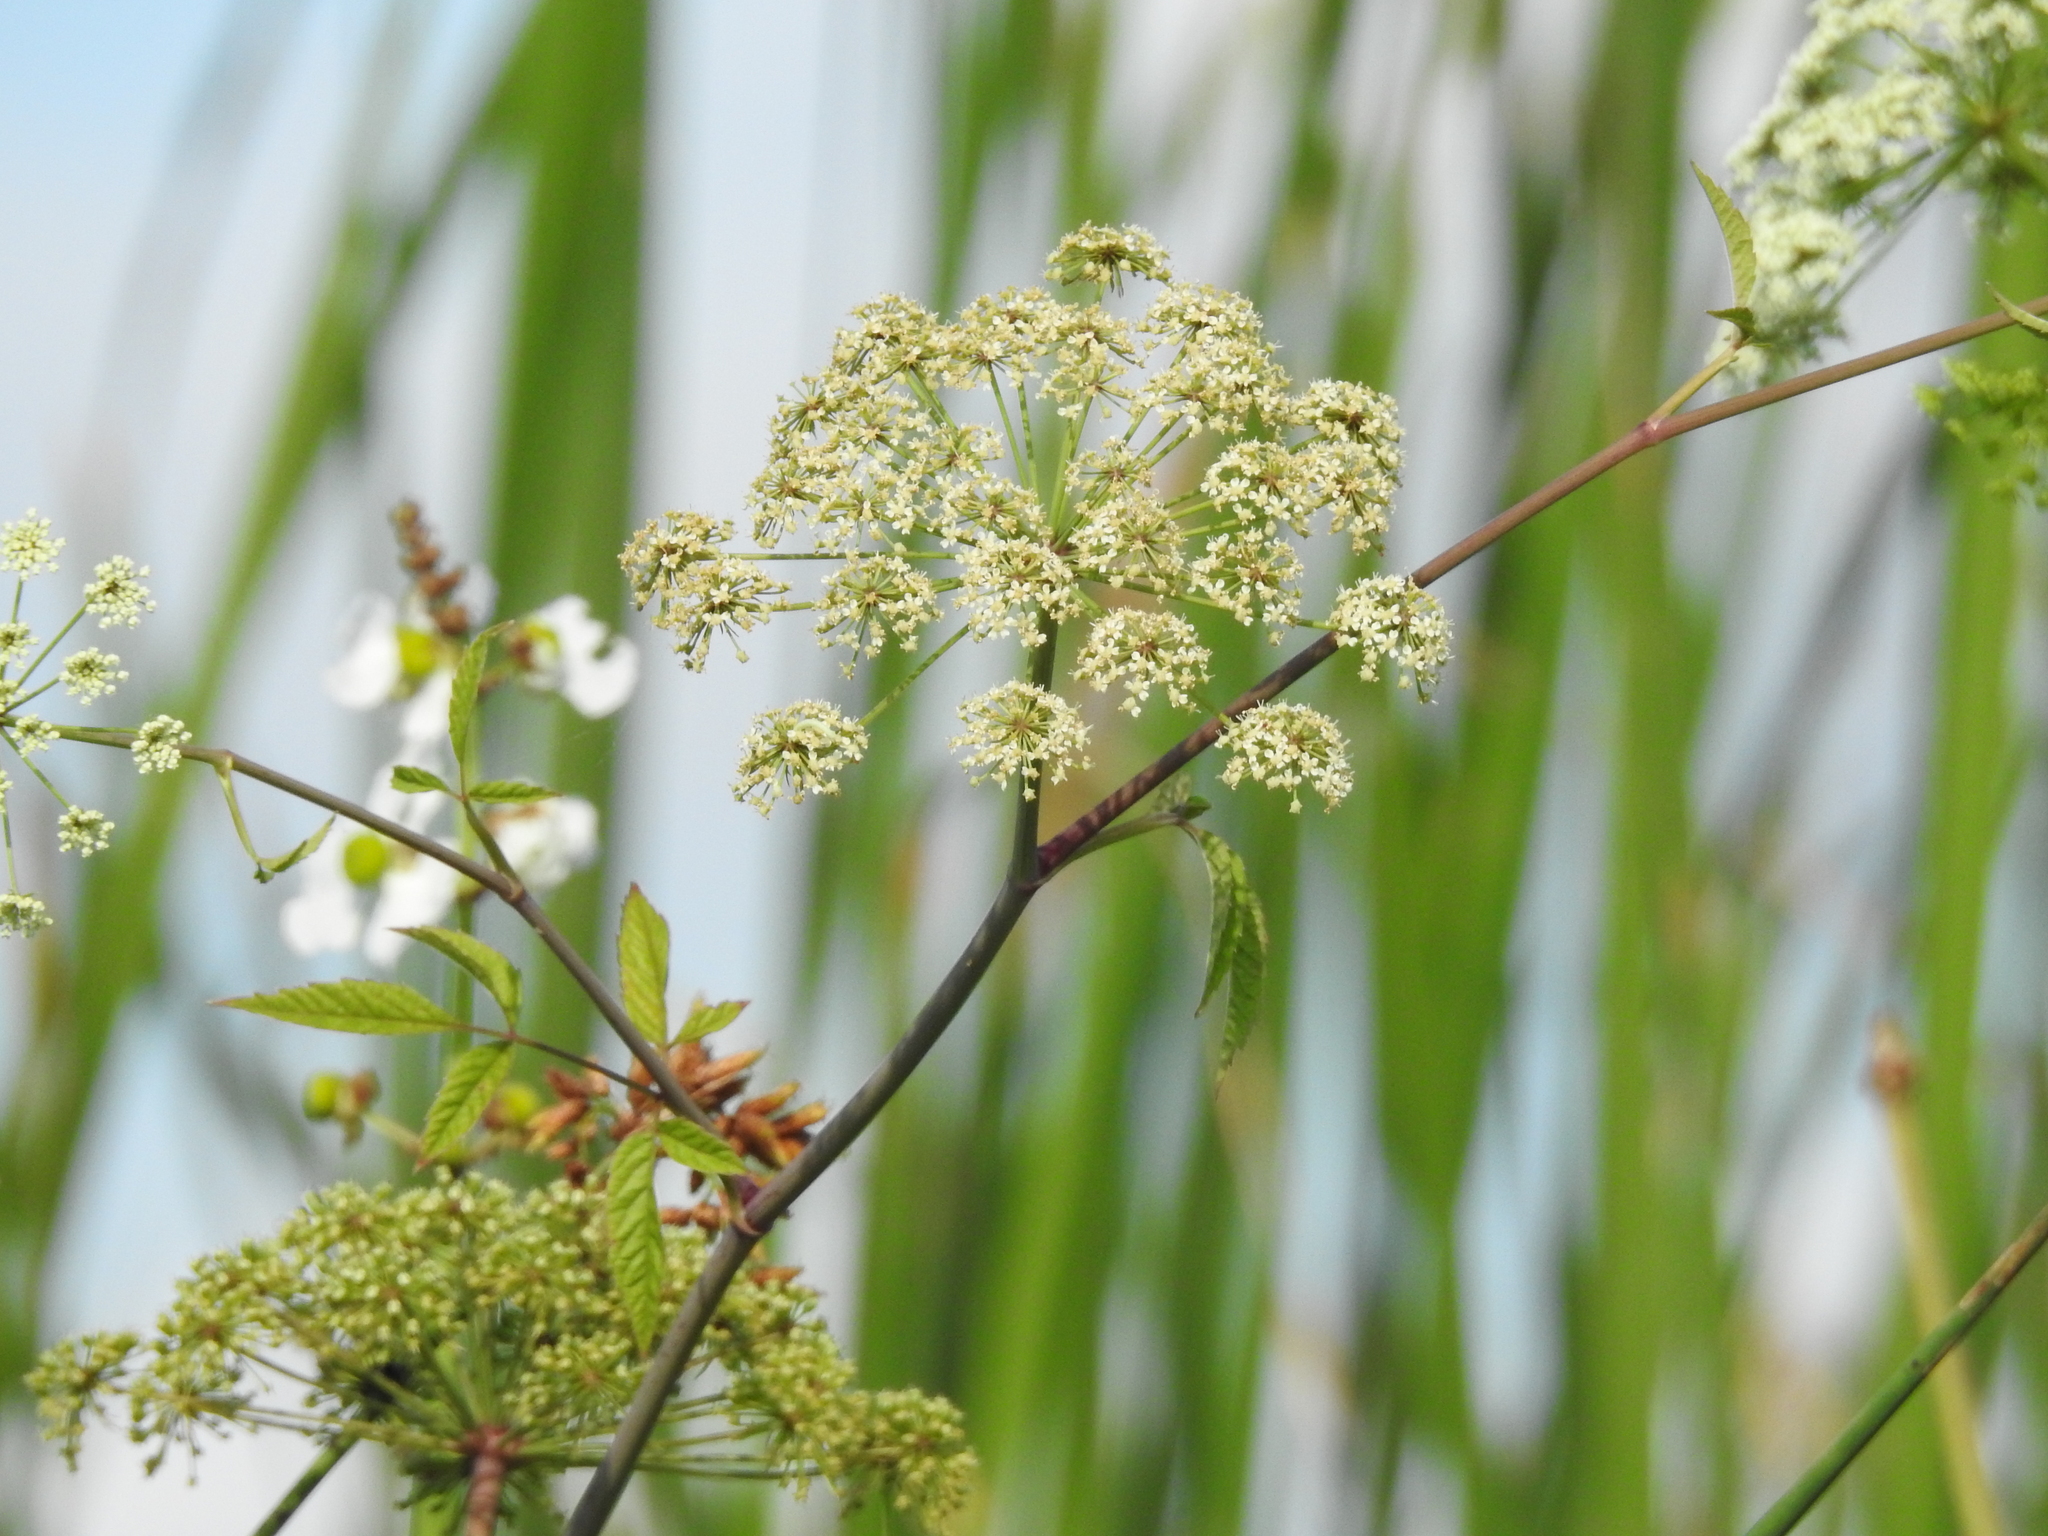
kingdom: Plantae
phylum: Tracheophyta
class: Magnoliopsida
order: Apiales
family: Apiaceae
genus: Cicuta
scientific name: Cicuta maculata
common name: Spotted cowbane
